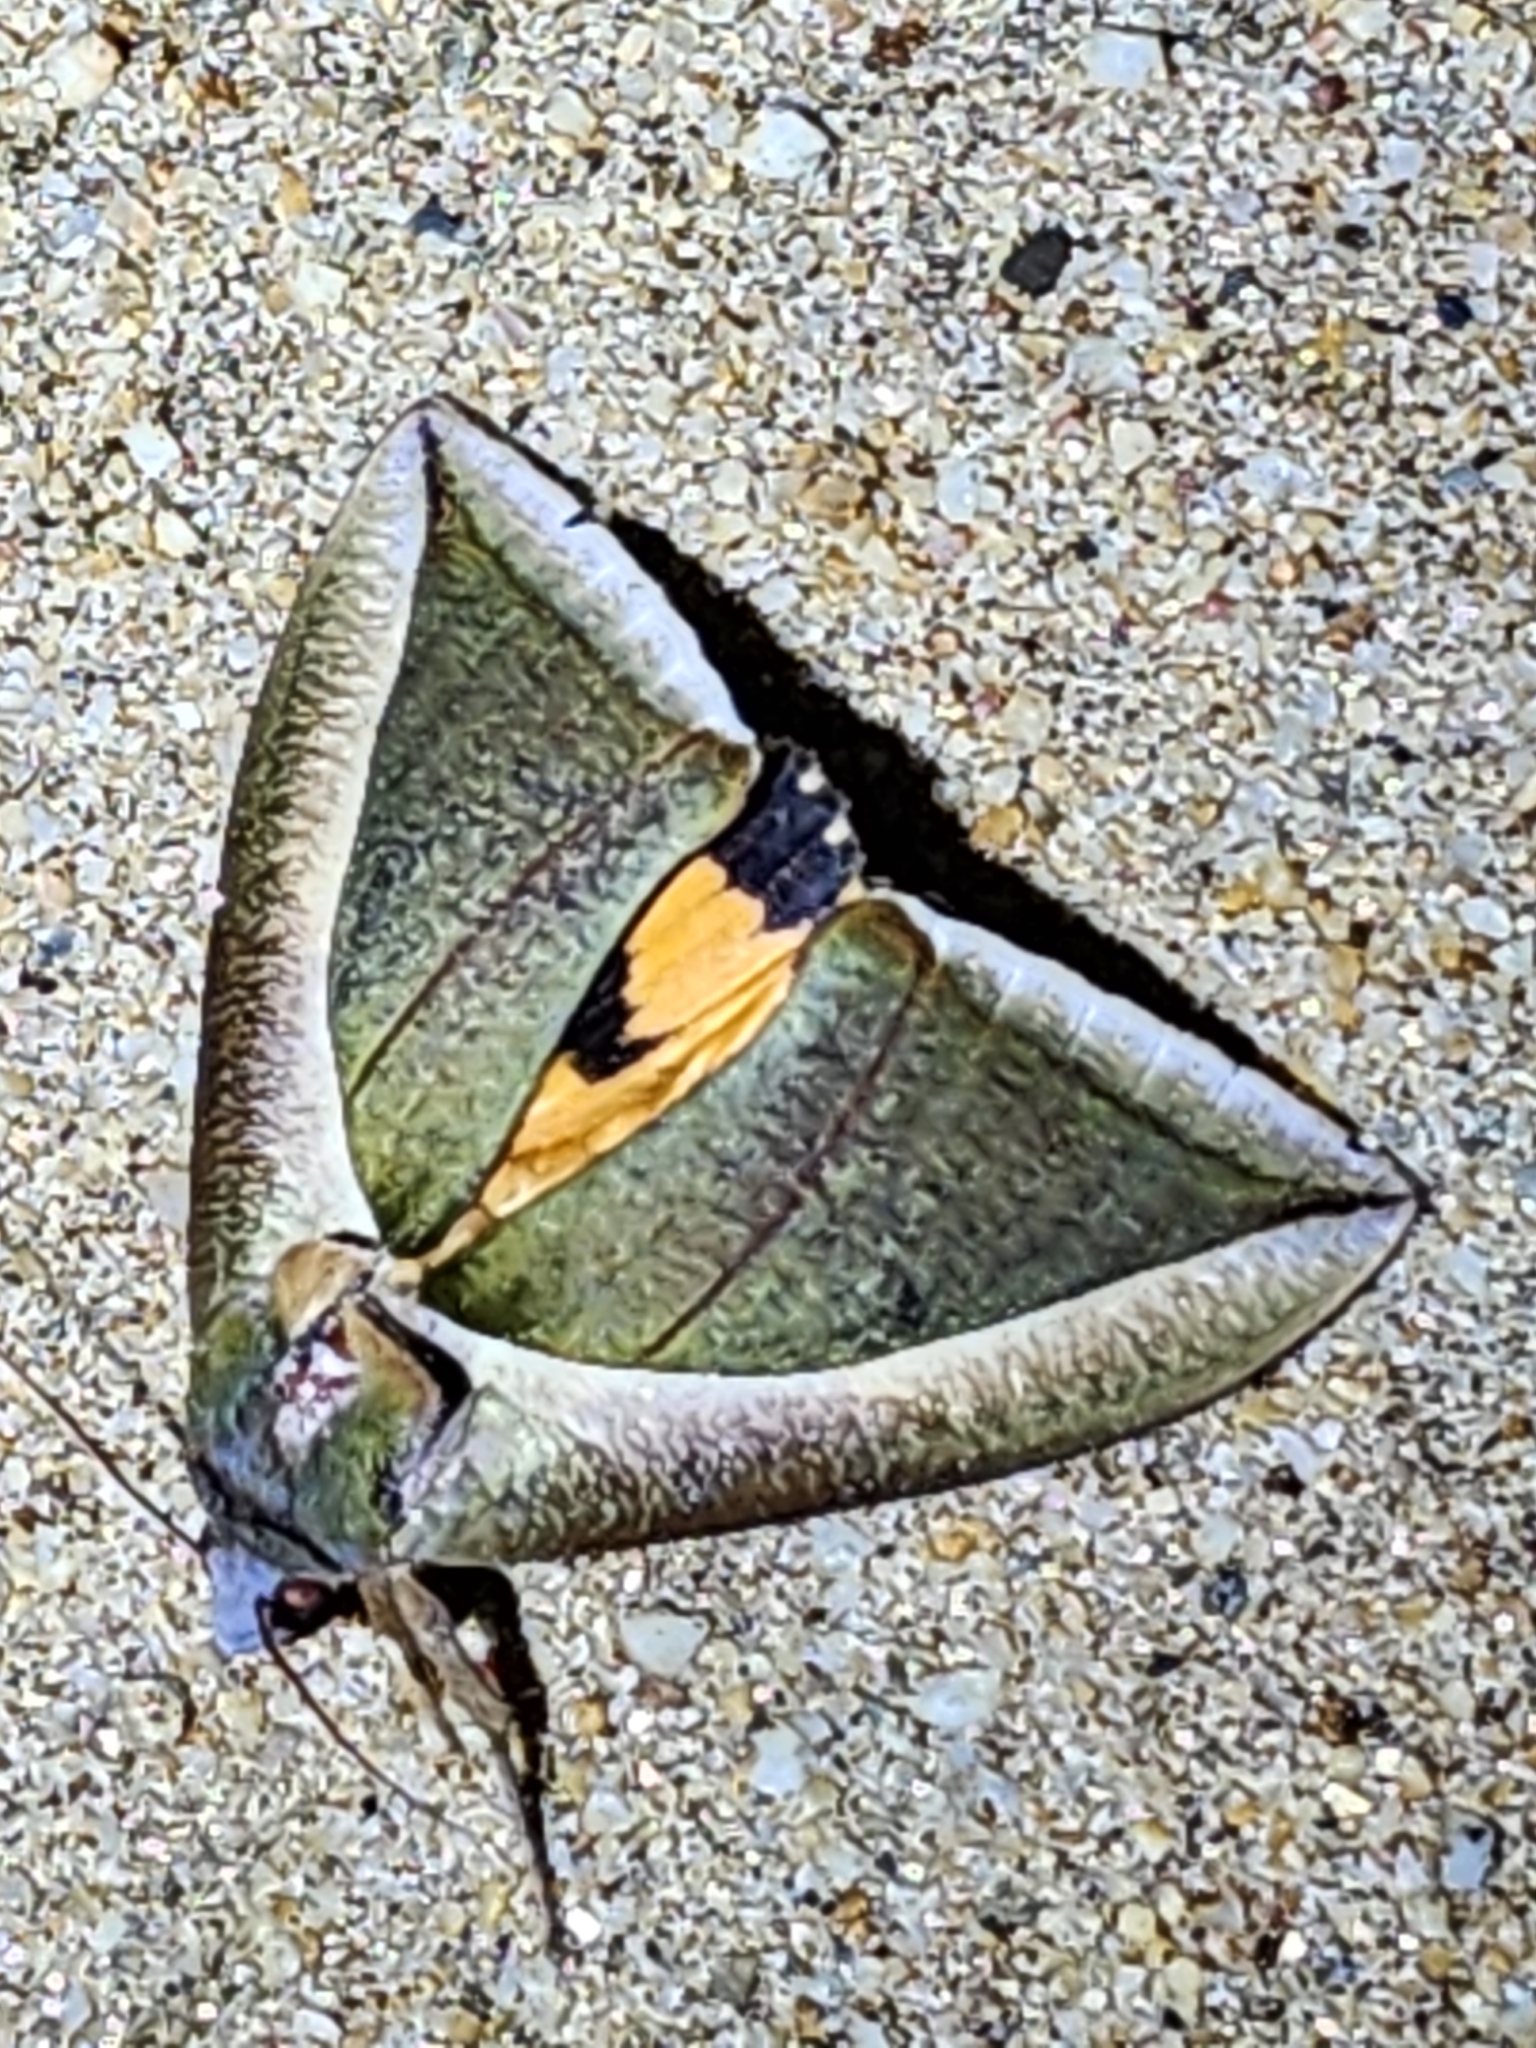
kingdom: Animalia
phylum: Arthropoda
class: Insecta
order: Lepidoptera
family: Erebidae
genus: Eudocima
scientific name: Eudocima salaminia
